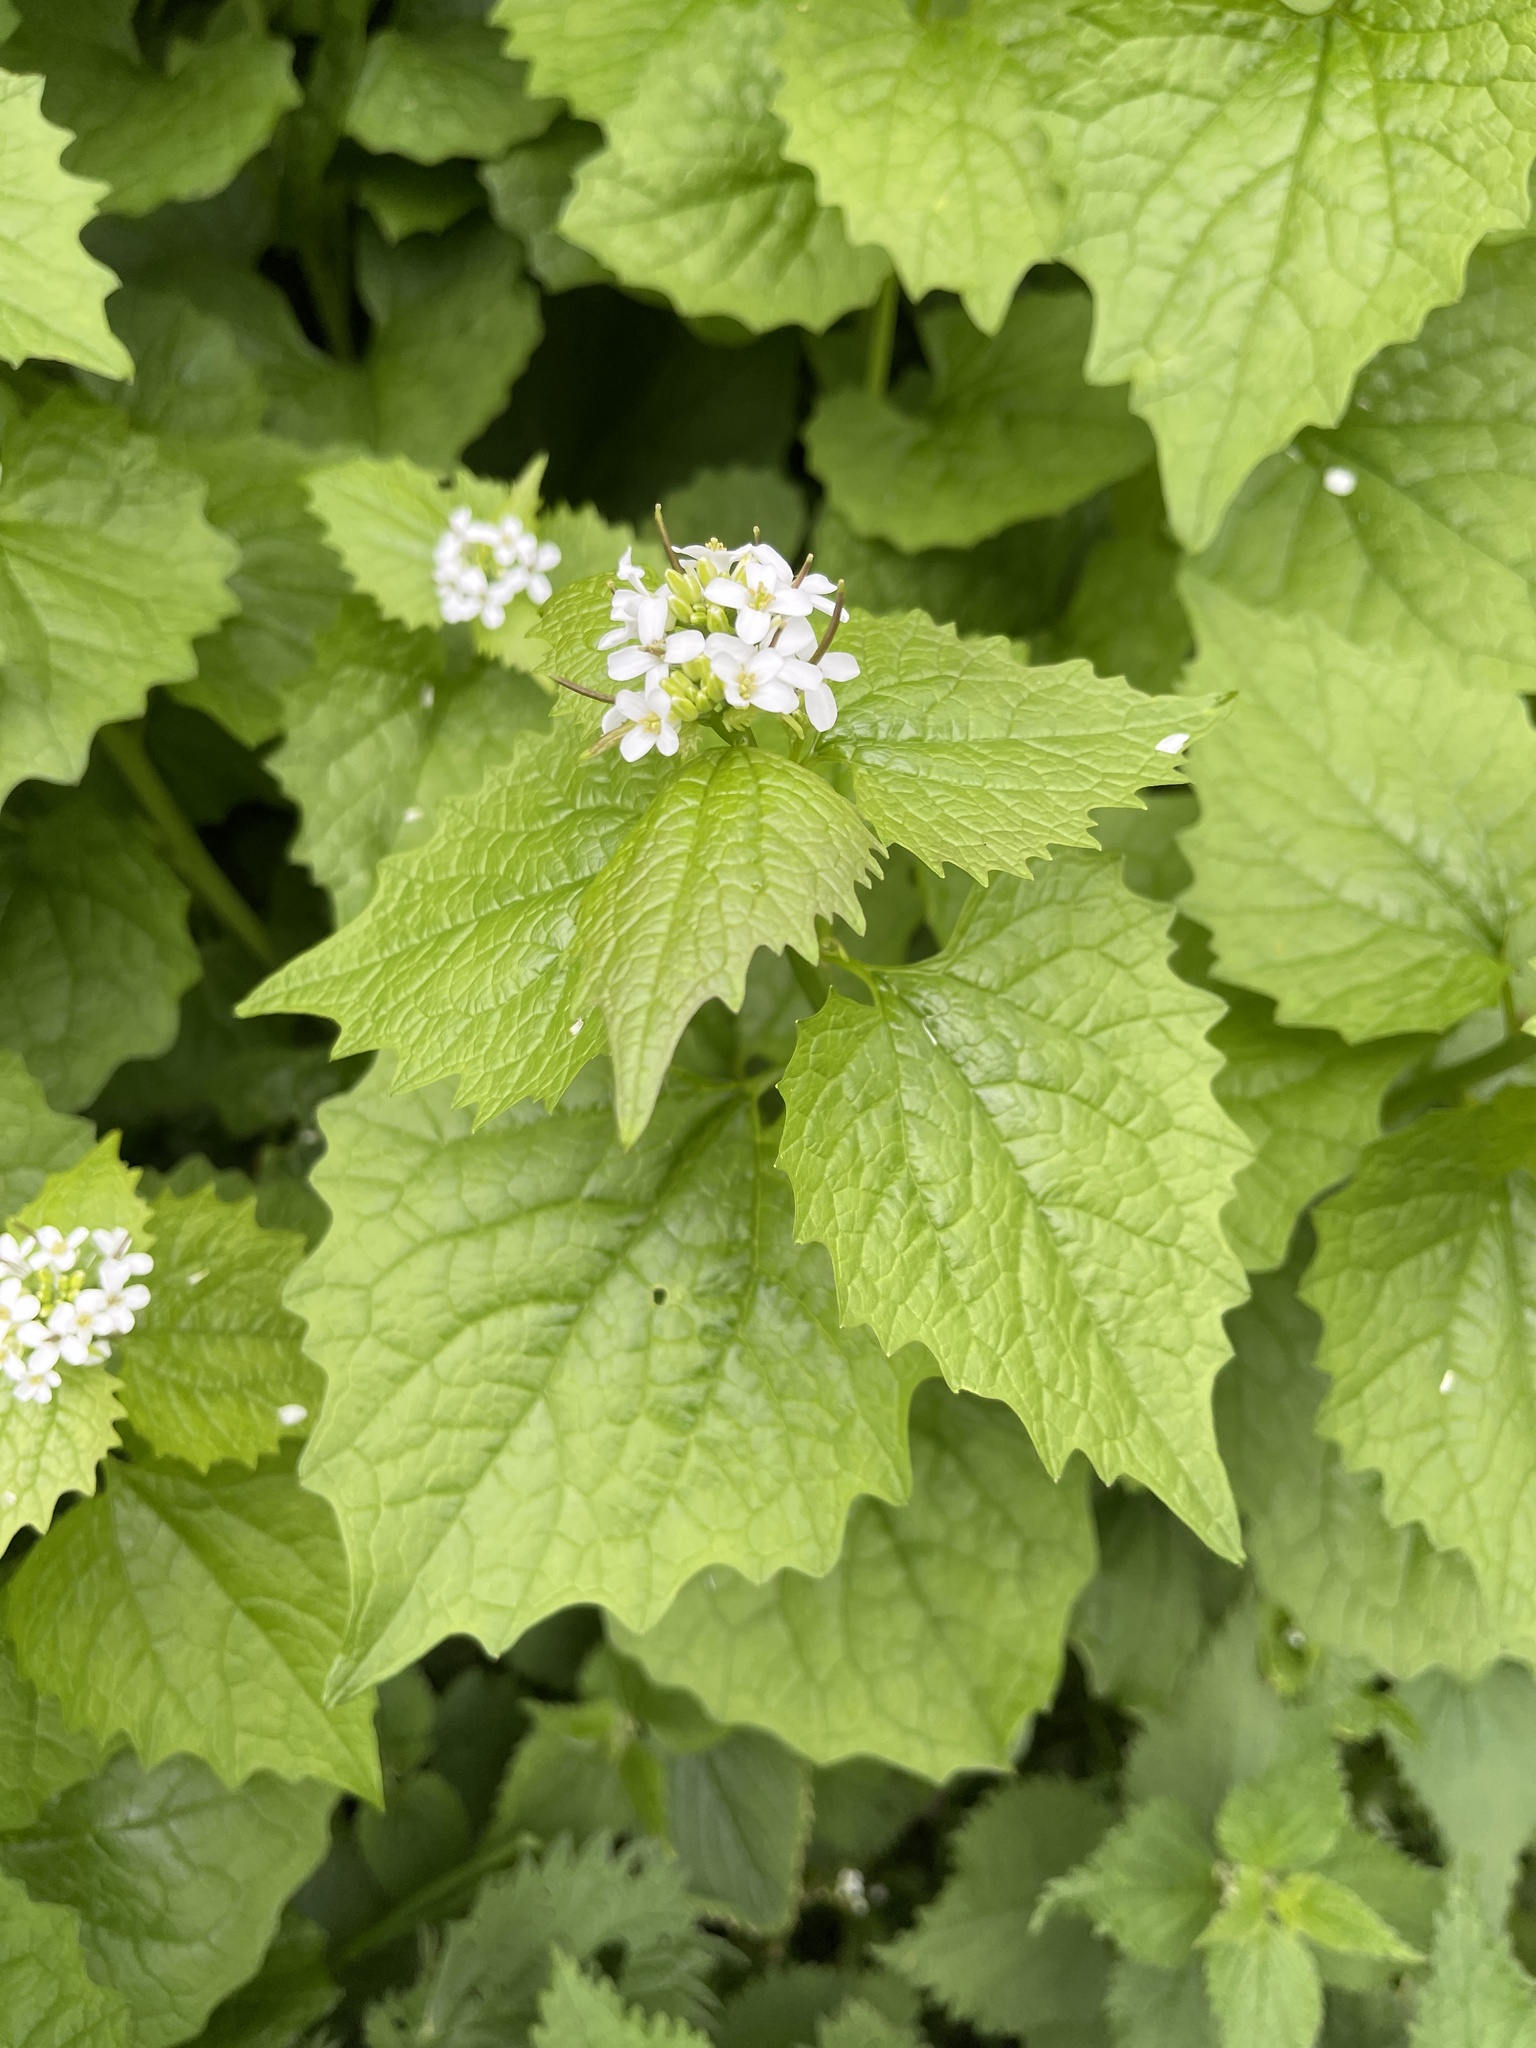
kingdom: Plantae
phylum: Tracheophyta
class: Magnoliopsida
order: Brassicales
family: Brassicaceae
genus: Alliaria
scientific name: Alliaria petiolata
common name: Garlic mustard
